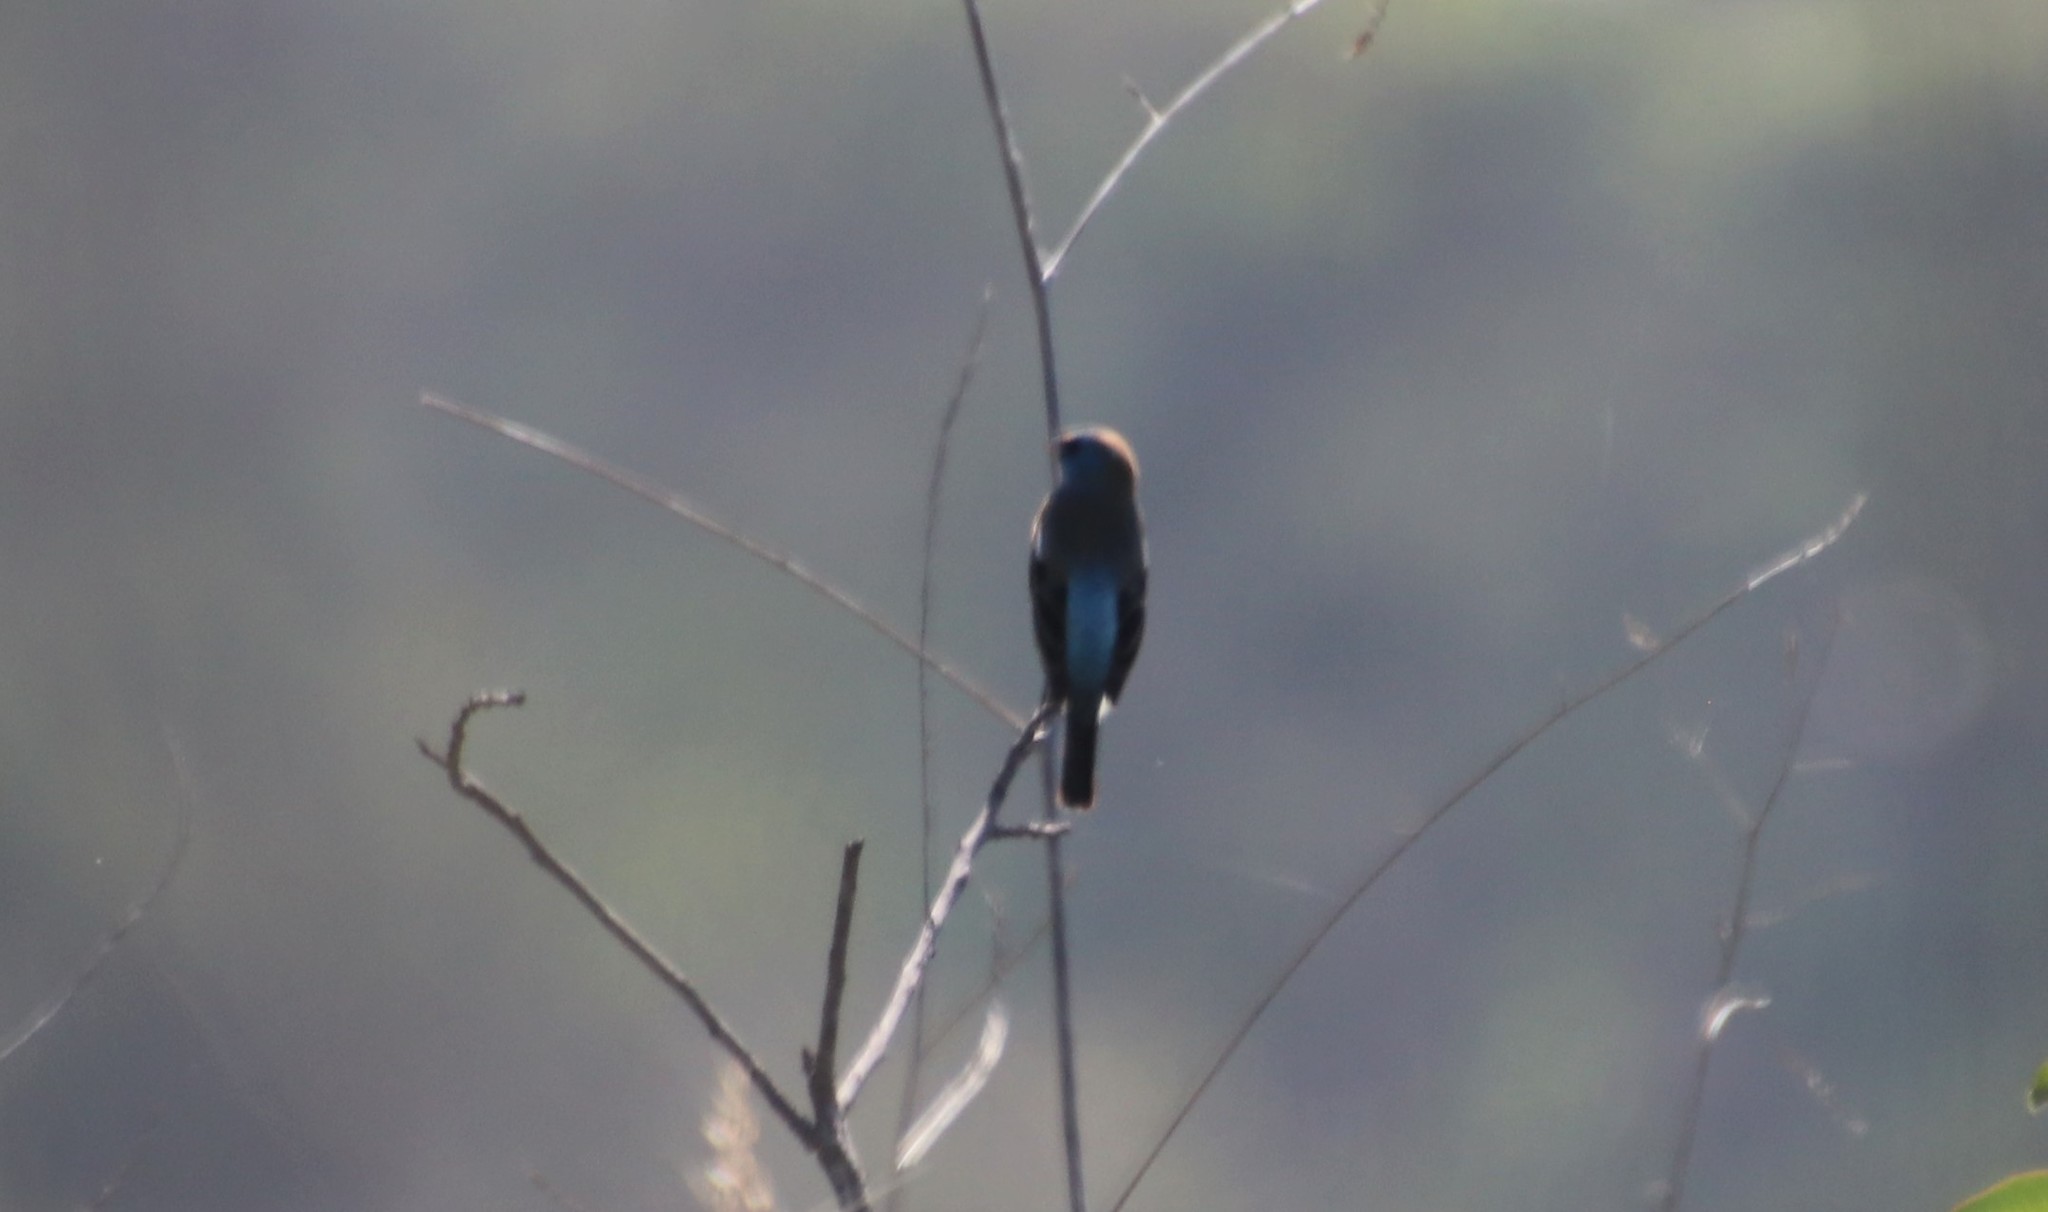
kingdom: Animalia
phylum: Chordata
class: Aves
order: Passeriformes
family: Cardinalidae
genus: Passerina
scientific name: Passerina amoena
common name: Lazuli bunting
